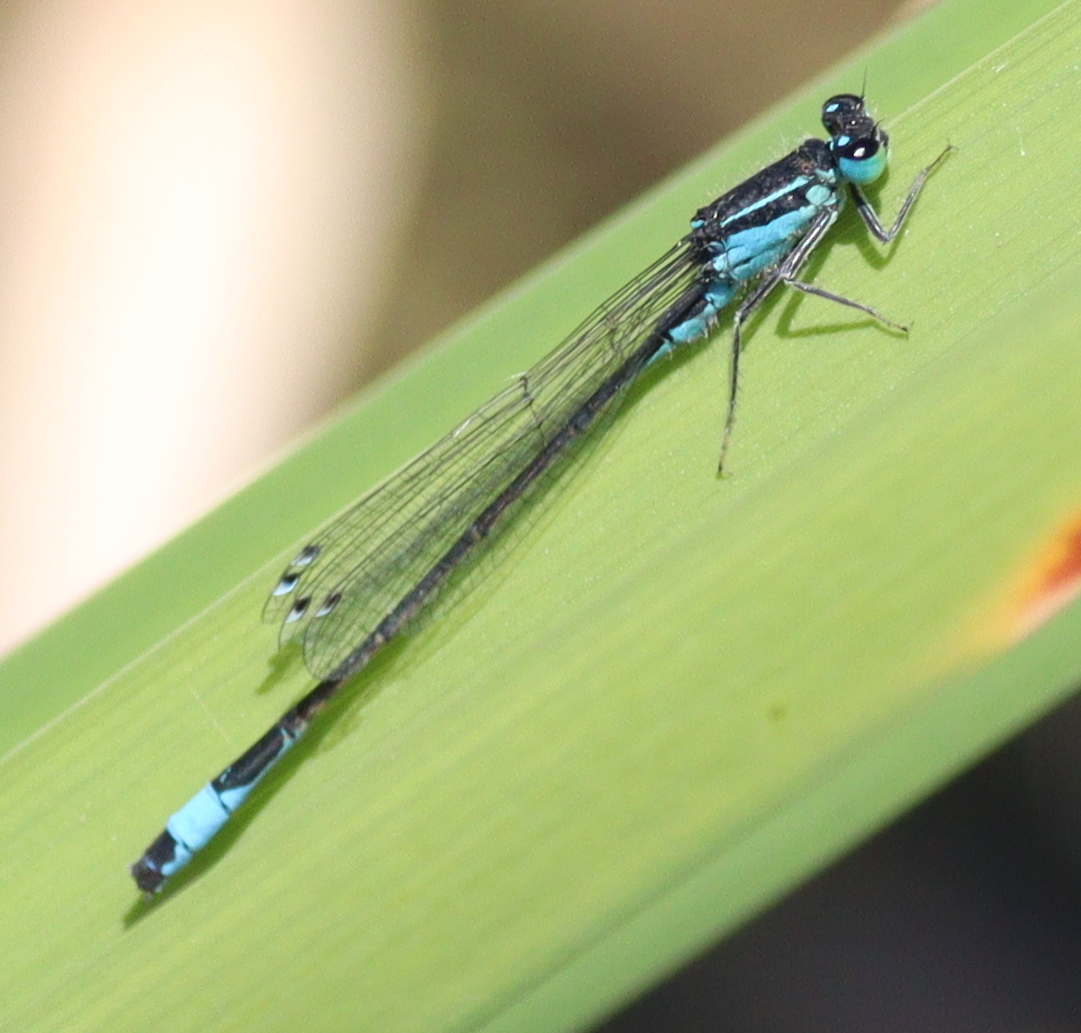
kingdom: Animalia
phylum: Arthropoda
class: Insecta
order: Odonata
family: Coenagrionidae
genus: Ischnura
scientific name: Ischnura elegans
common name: Blue-tailed damselfly
